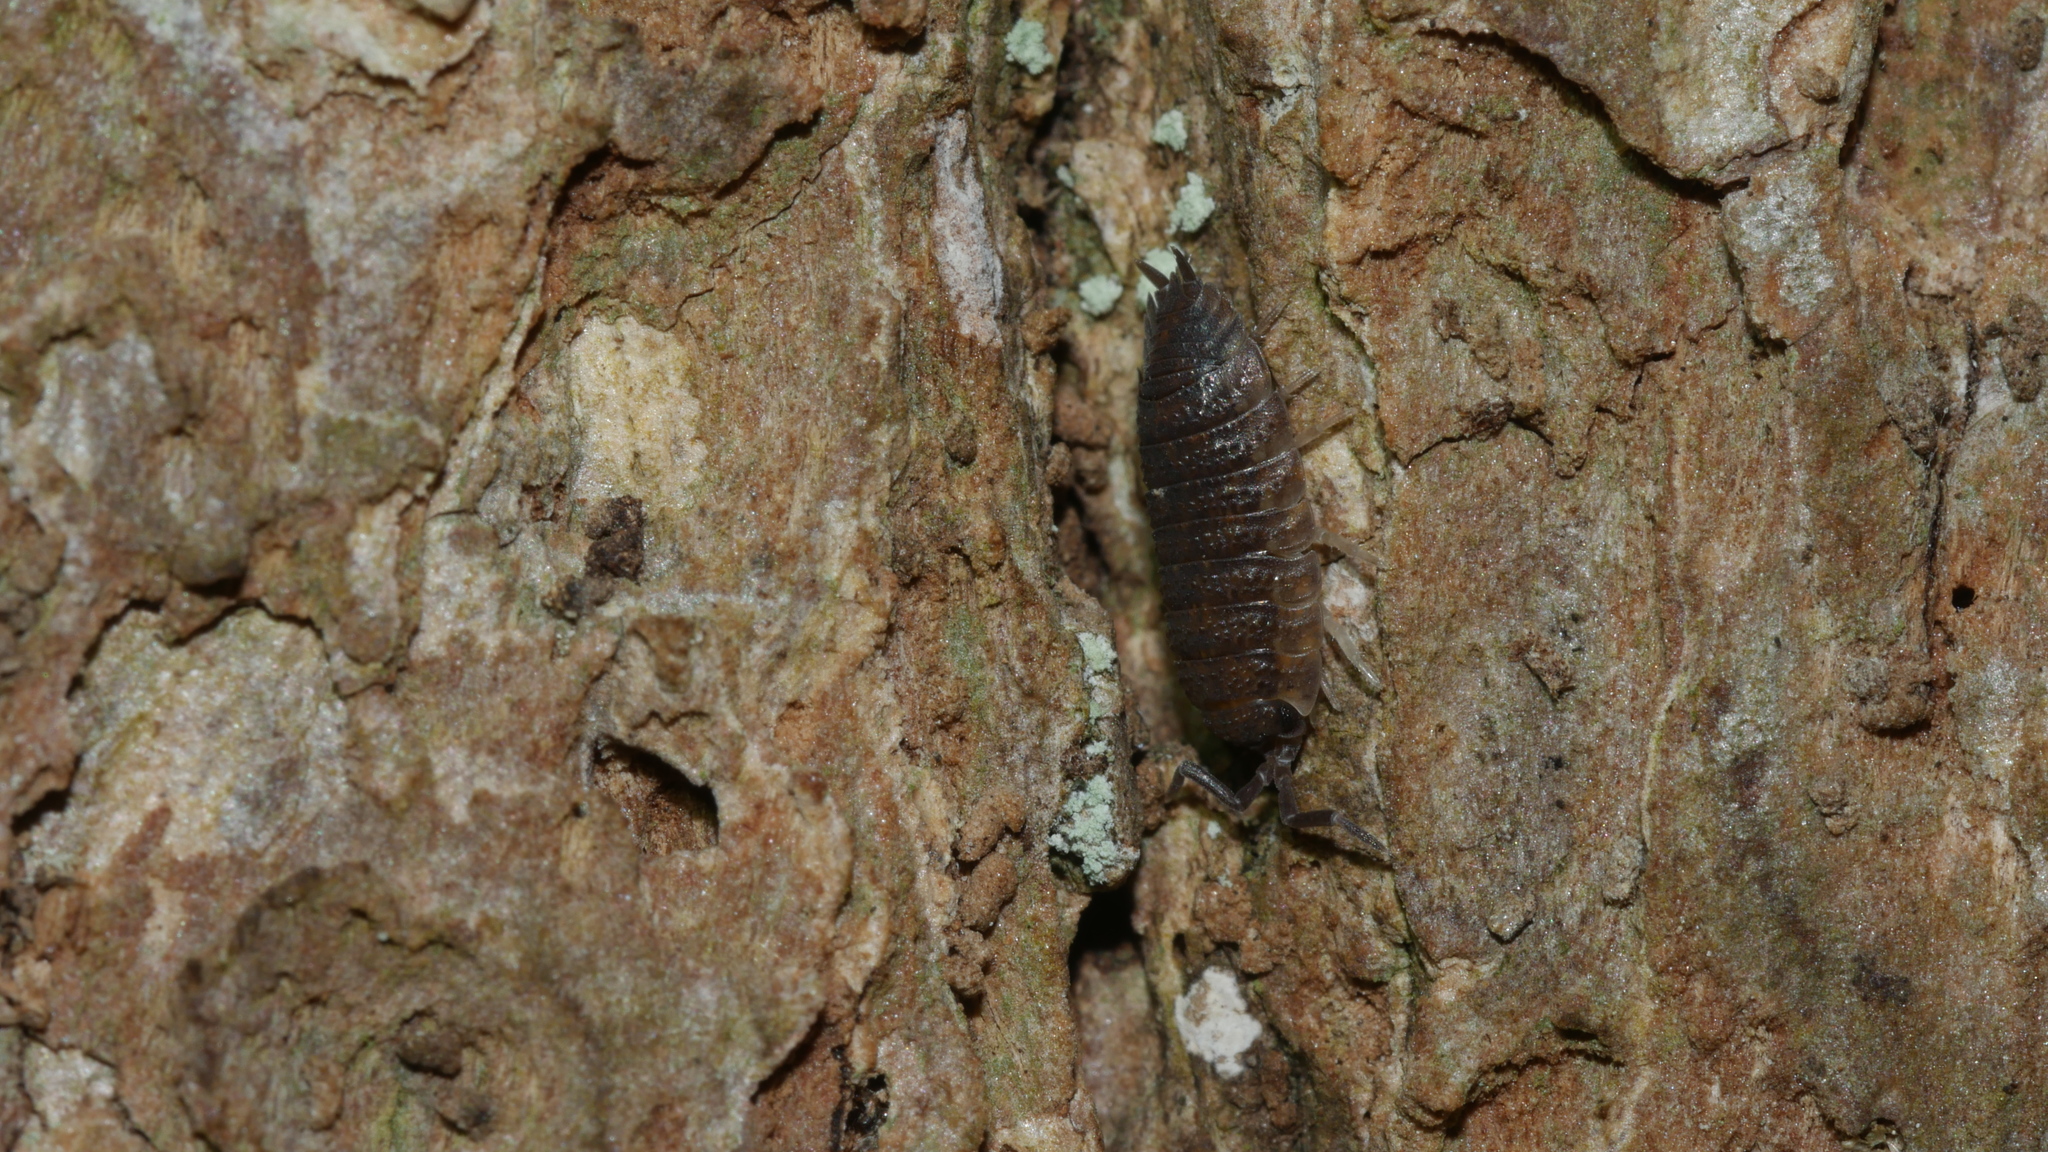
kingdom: Animalia
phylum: Arthropoda
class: Malacostraca
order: Isopoda
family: Porcellionidae
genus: Porcellio
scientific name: Porcellio scaber
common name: Common rough woodlouse
